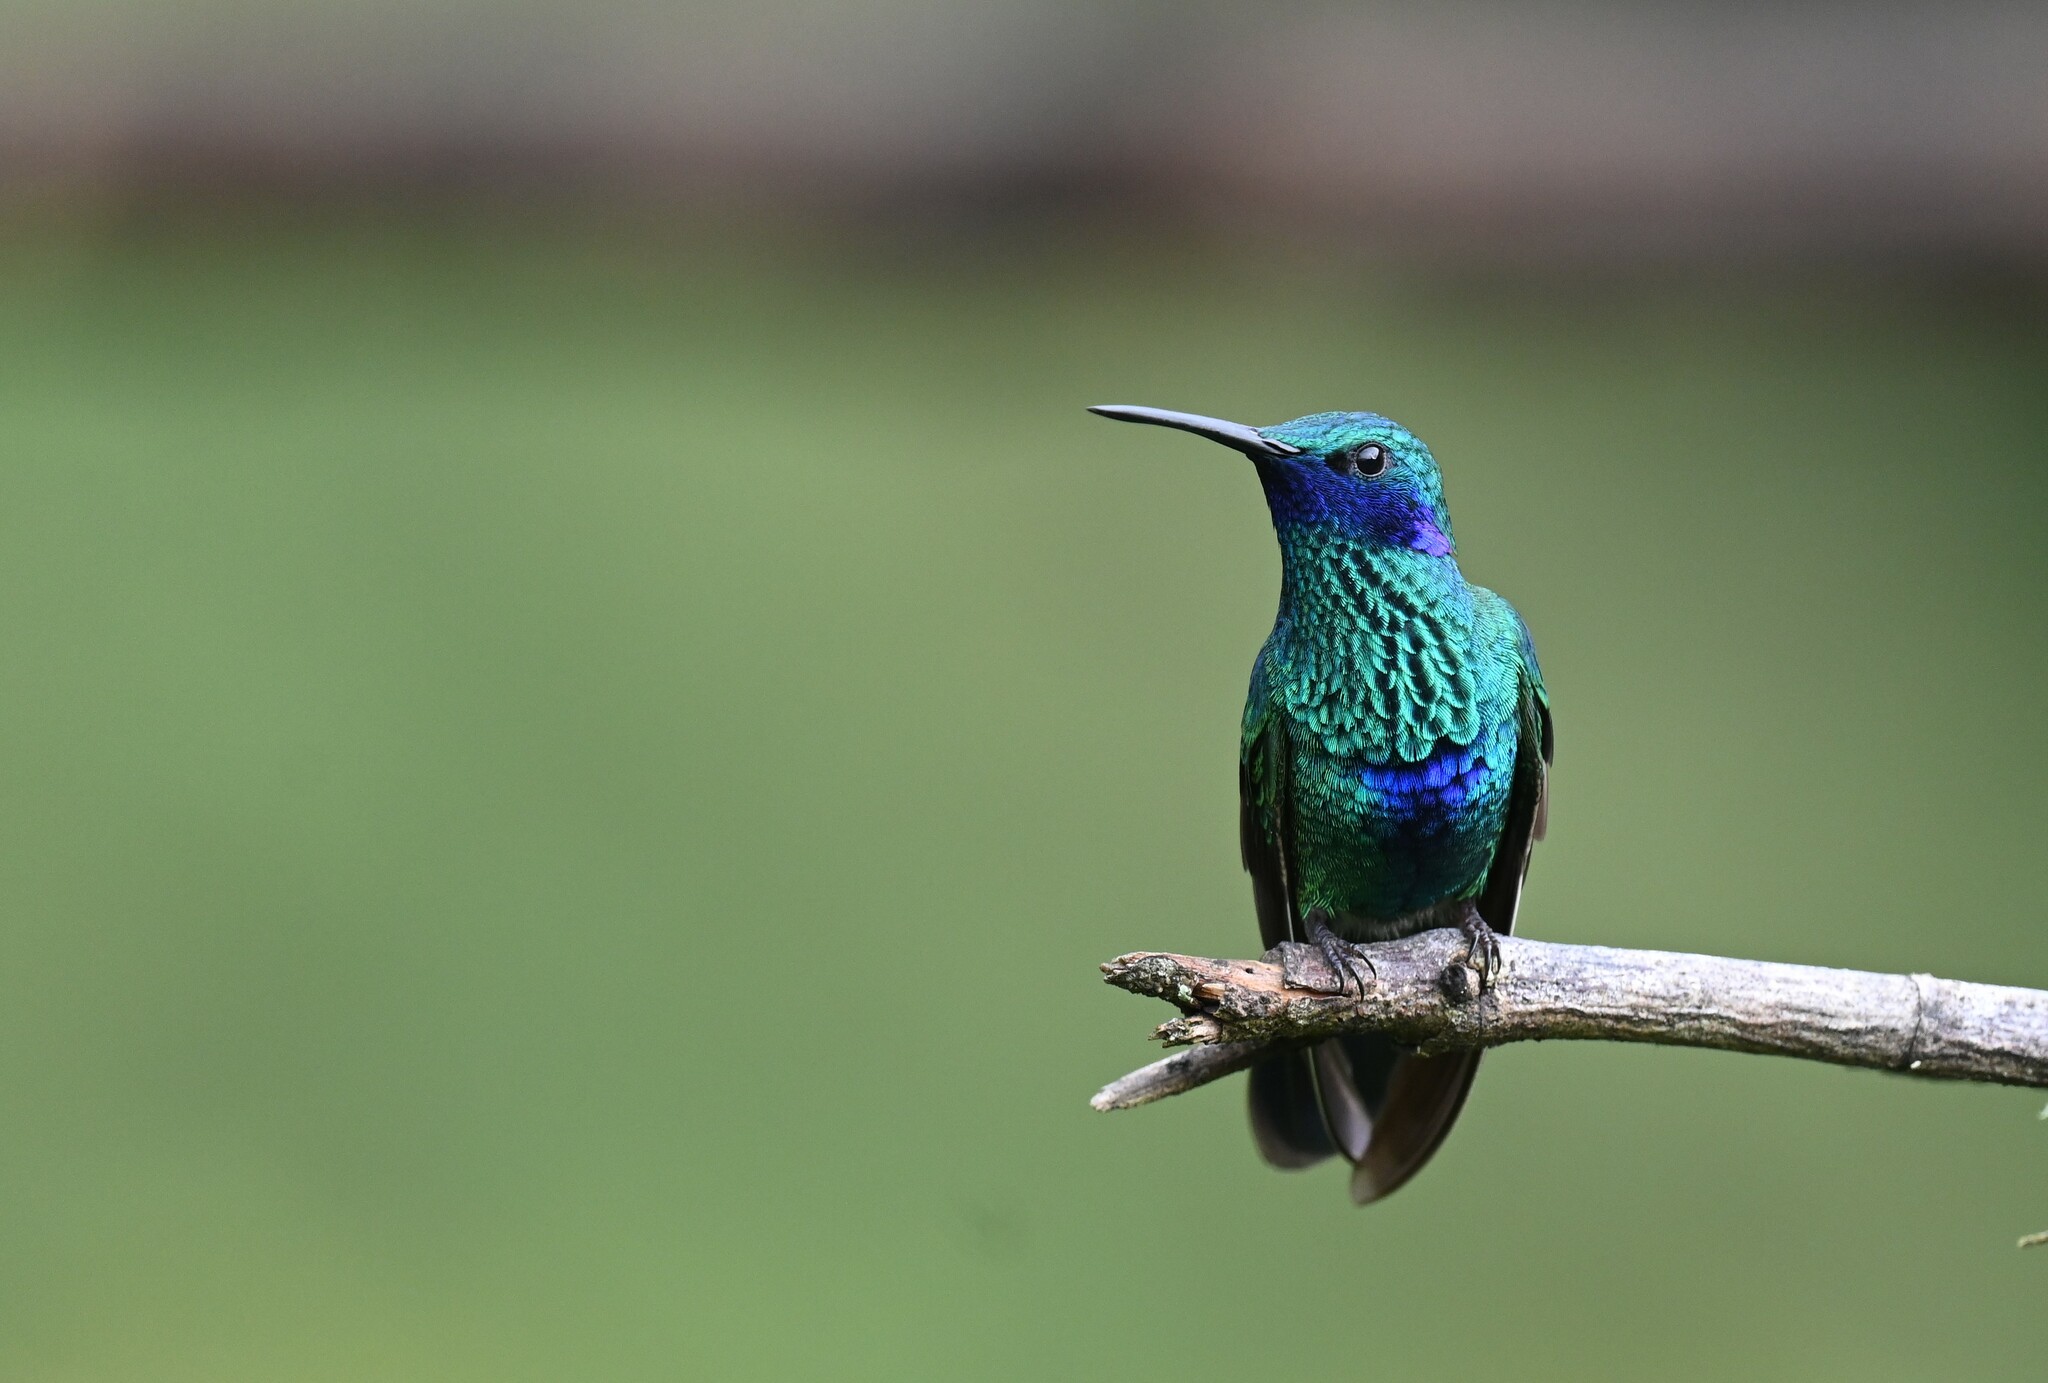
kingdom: Animalia
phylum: Chordata
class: Aves
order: Apodiformes
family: Trochilidae
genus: Colibri
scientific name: Colibri coruscans
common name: Sparkling violetear
